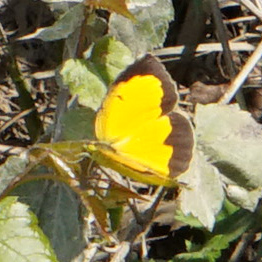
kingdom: Animalia
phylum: Arthropoda
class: Insecta
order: Lepidoptera
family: Pieridae
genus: Abaeis
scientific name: Abaeis nicippe
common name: Sleepy orange
